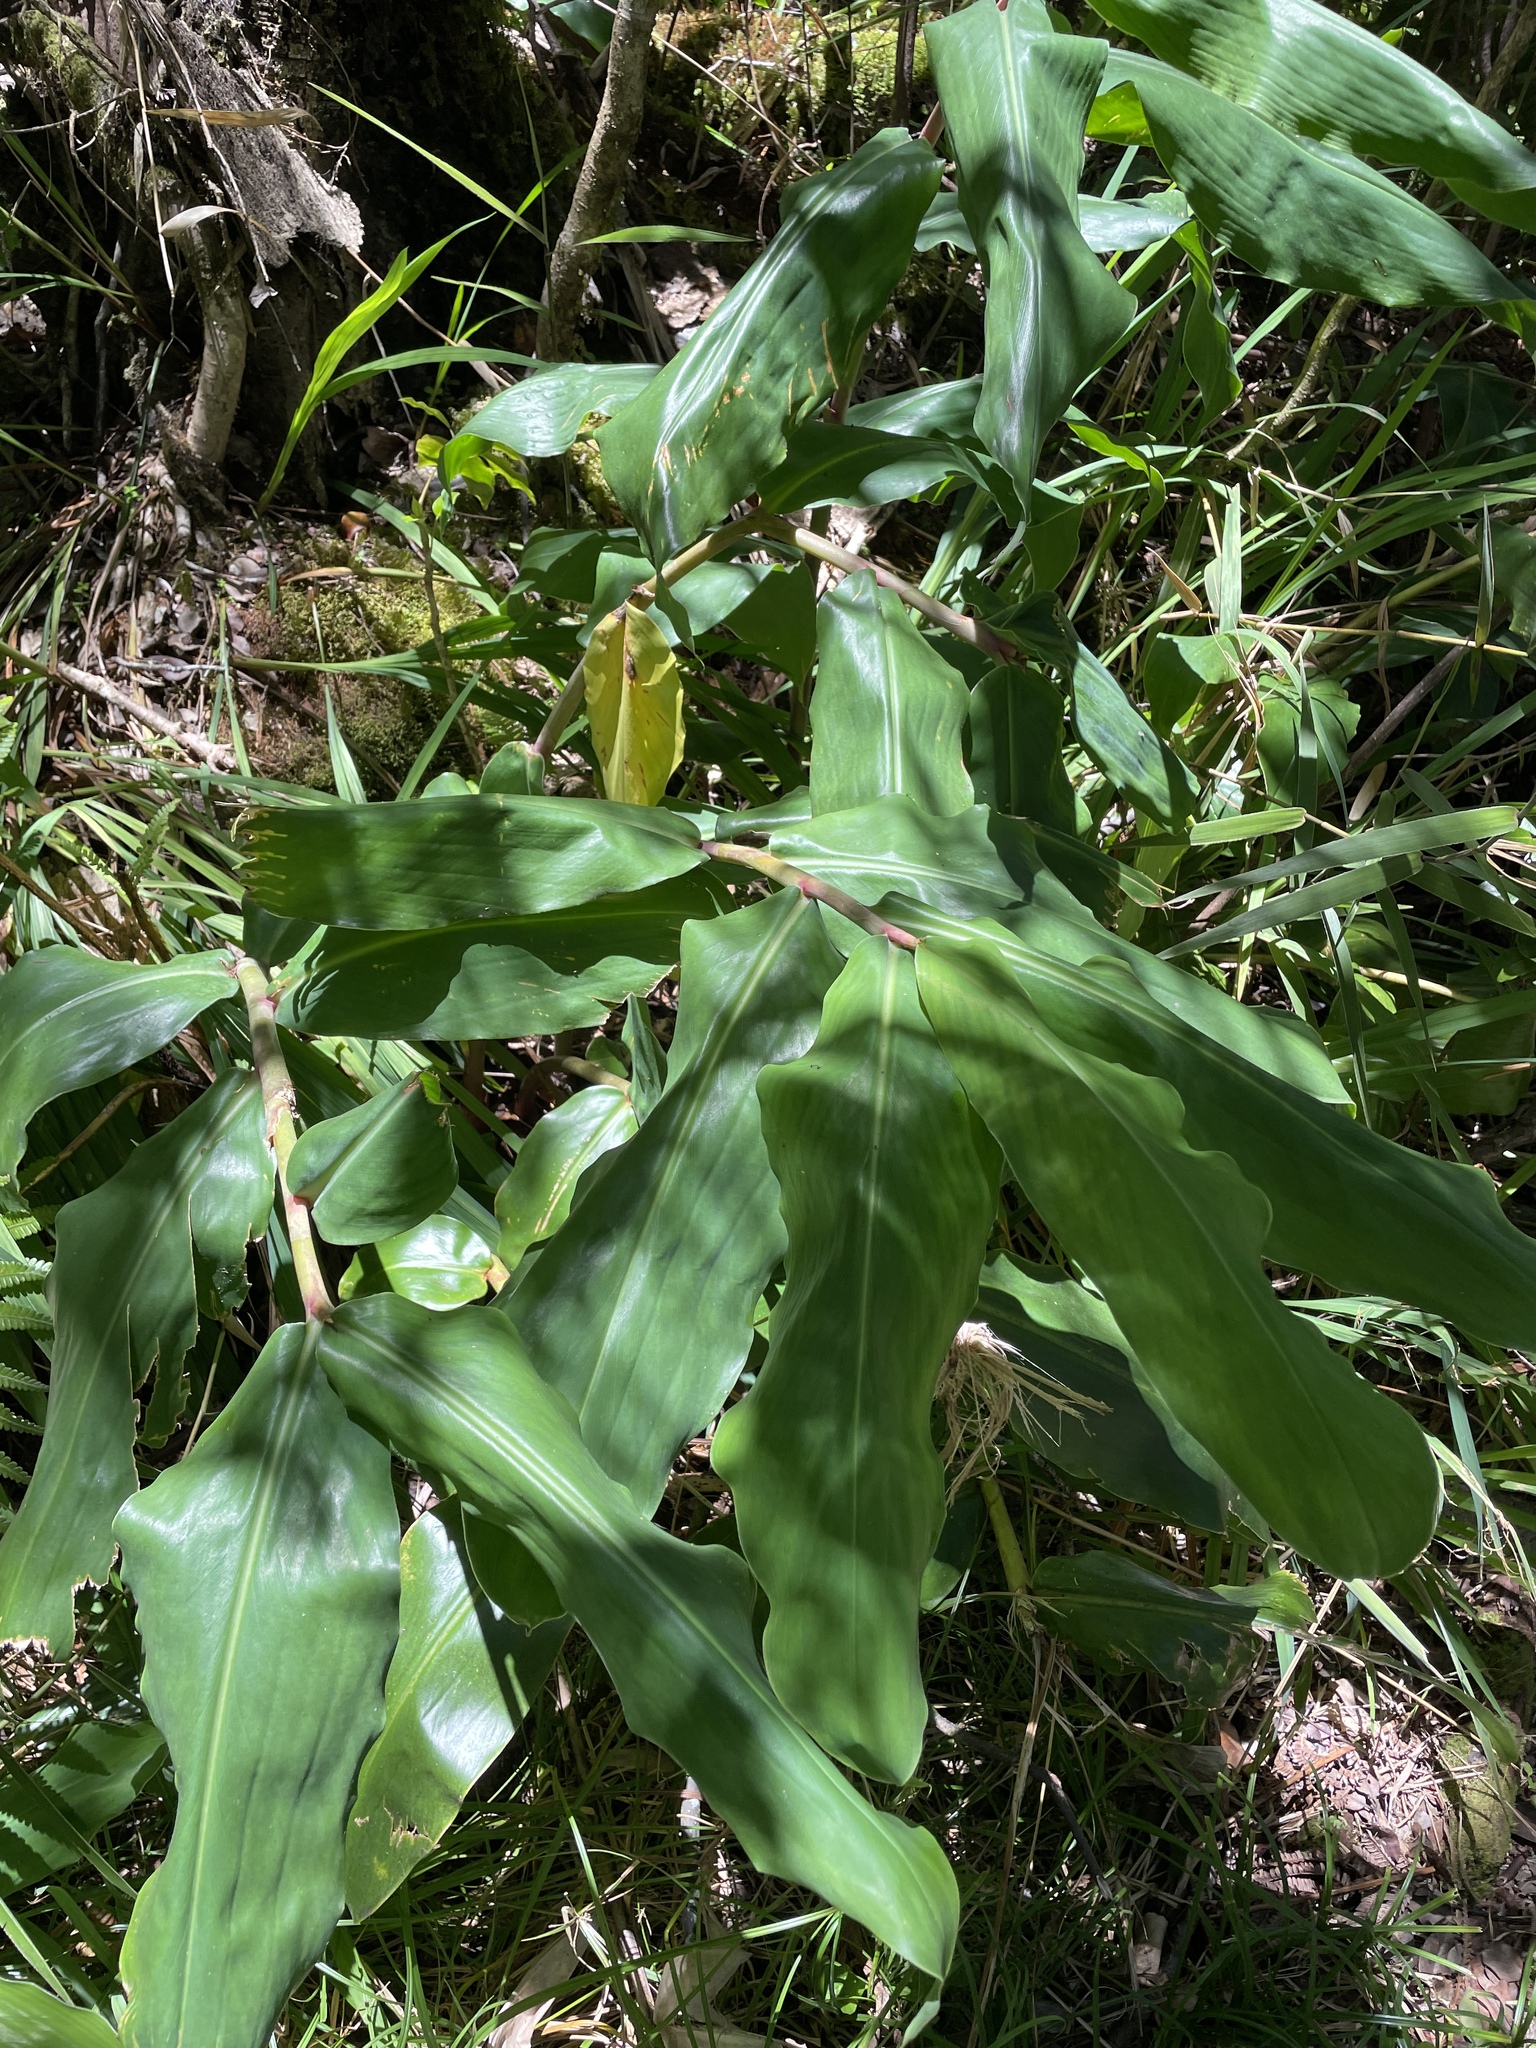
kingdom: Plantae
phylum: Tracheophyta
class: Liliopsida
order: Zingiberales
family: Zingiberaceae
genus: Hedychium
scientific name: Hedychium gardnerianum
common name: Himalayan ginger
